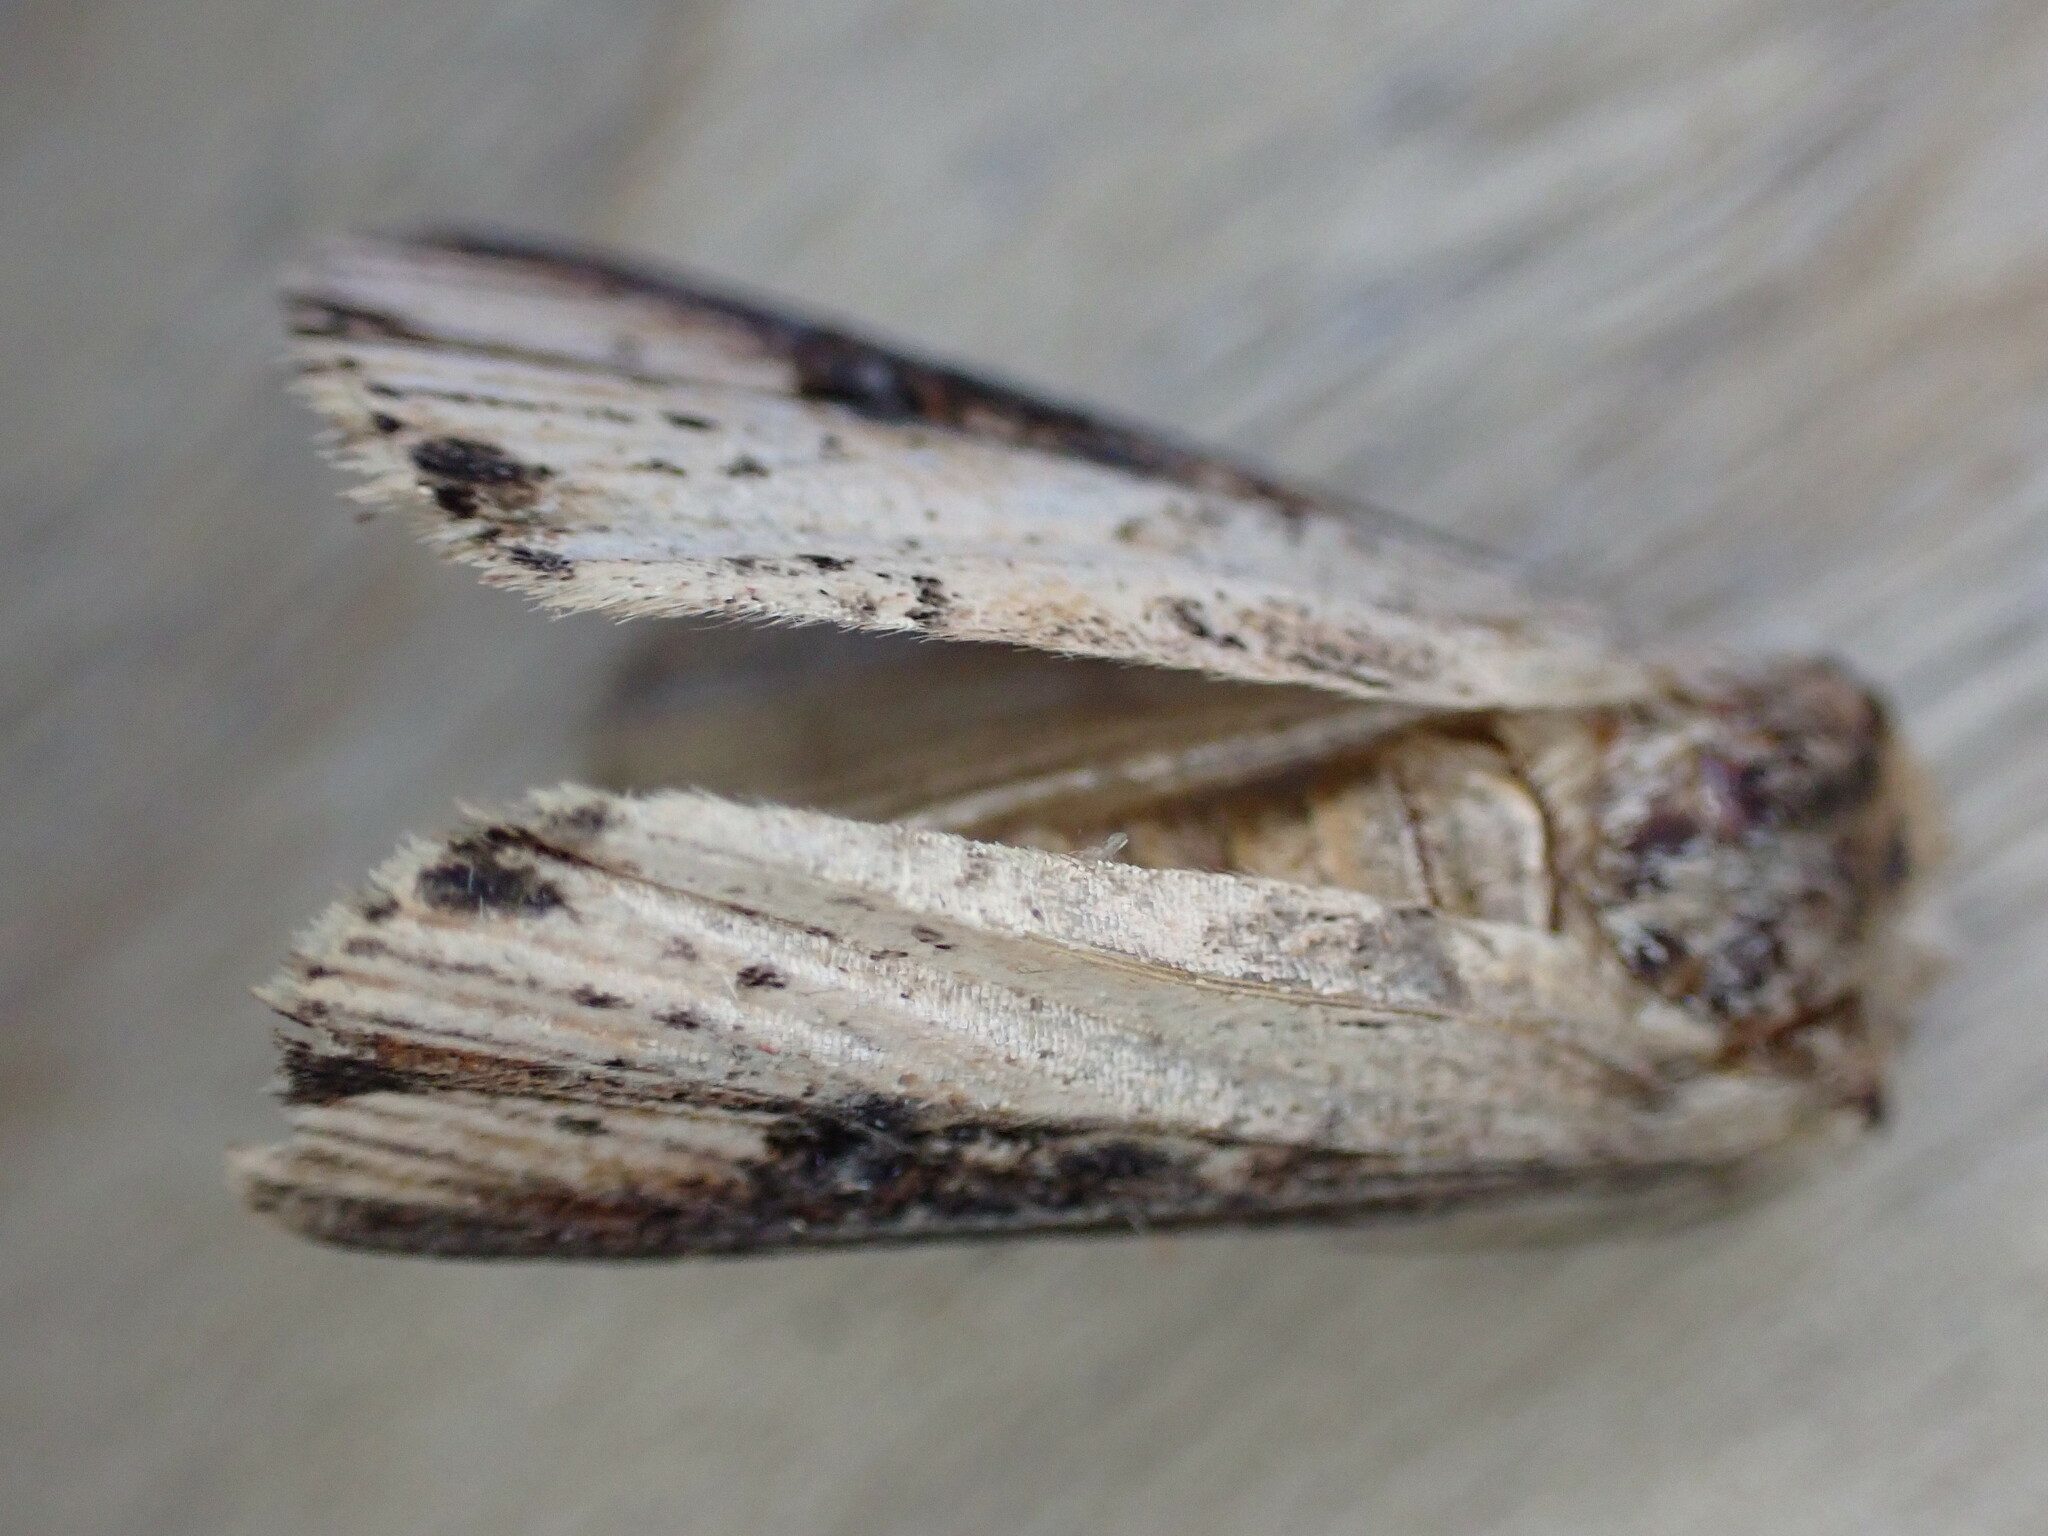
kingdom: Animalia
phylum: Arthropoda
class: Insecta
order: Lepidoptera
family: Noctuidae
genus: Axylia
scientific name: Axylia putris
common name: Flame
